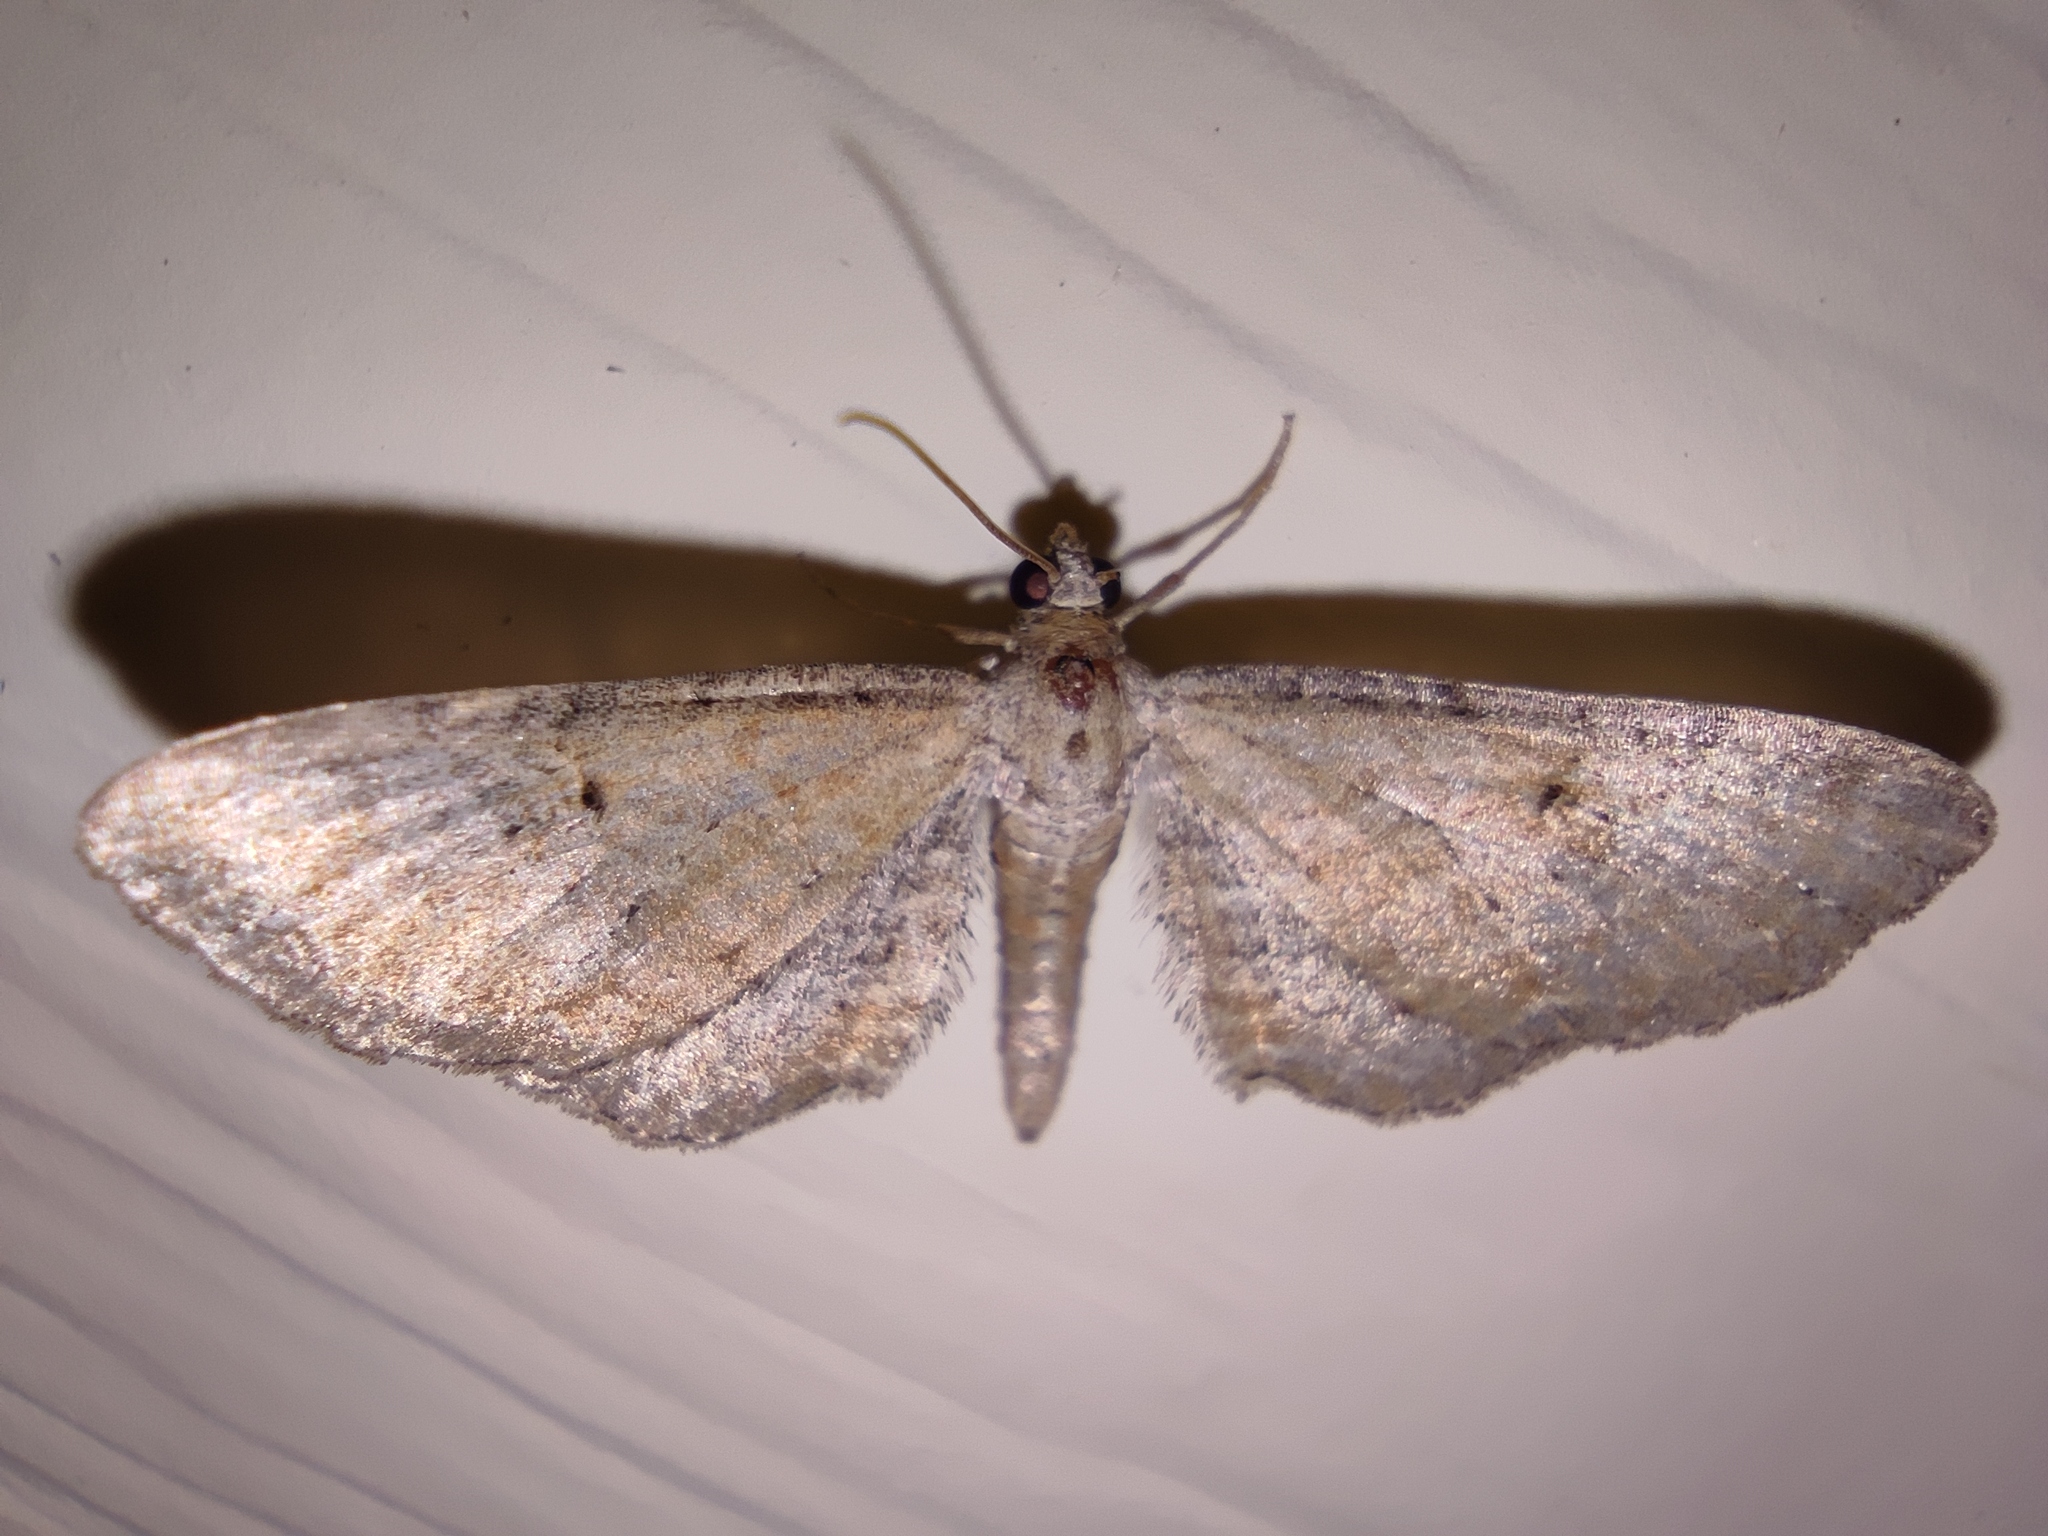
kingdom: Animalia
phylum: Arthropoda
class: Insecta
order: Lepidoptera
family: Geometridae
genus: Eupithecia
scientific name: Eupithecia simpliciata
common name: Plain pug
